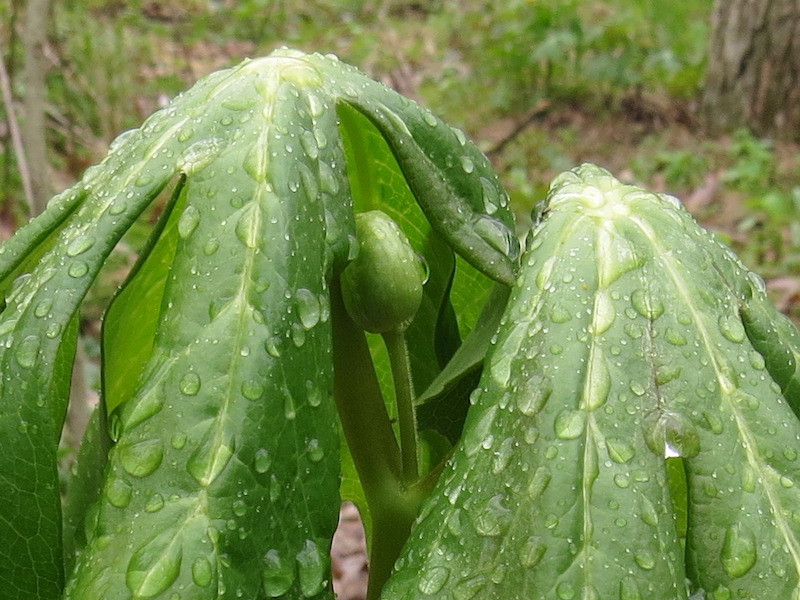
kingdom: Plantae
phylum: Tracheophyta
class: Magnoliopsida
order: Ranunculales
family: Berberidaceae
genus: Podophyllum
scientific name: Podophyllum peltatum
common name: Wild mandrake
